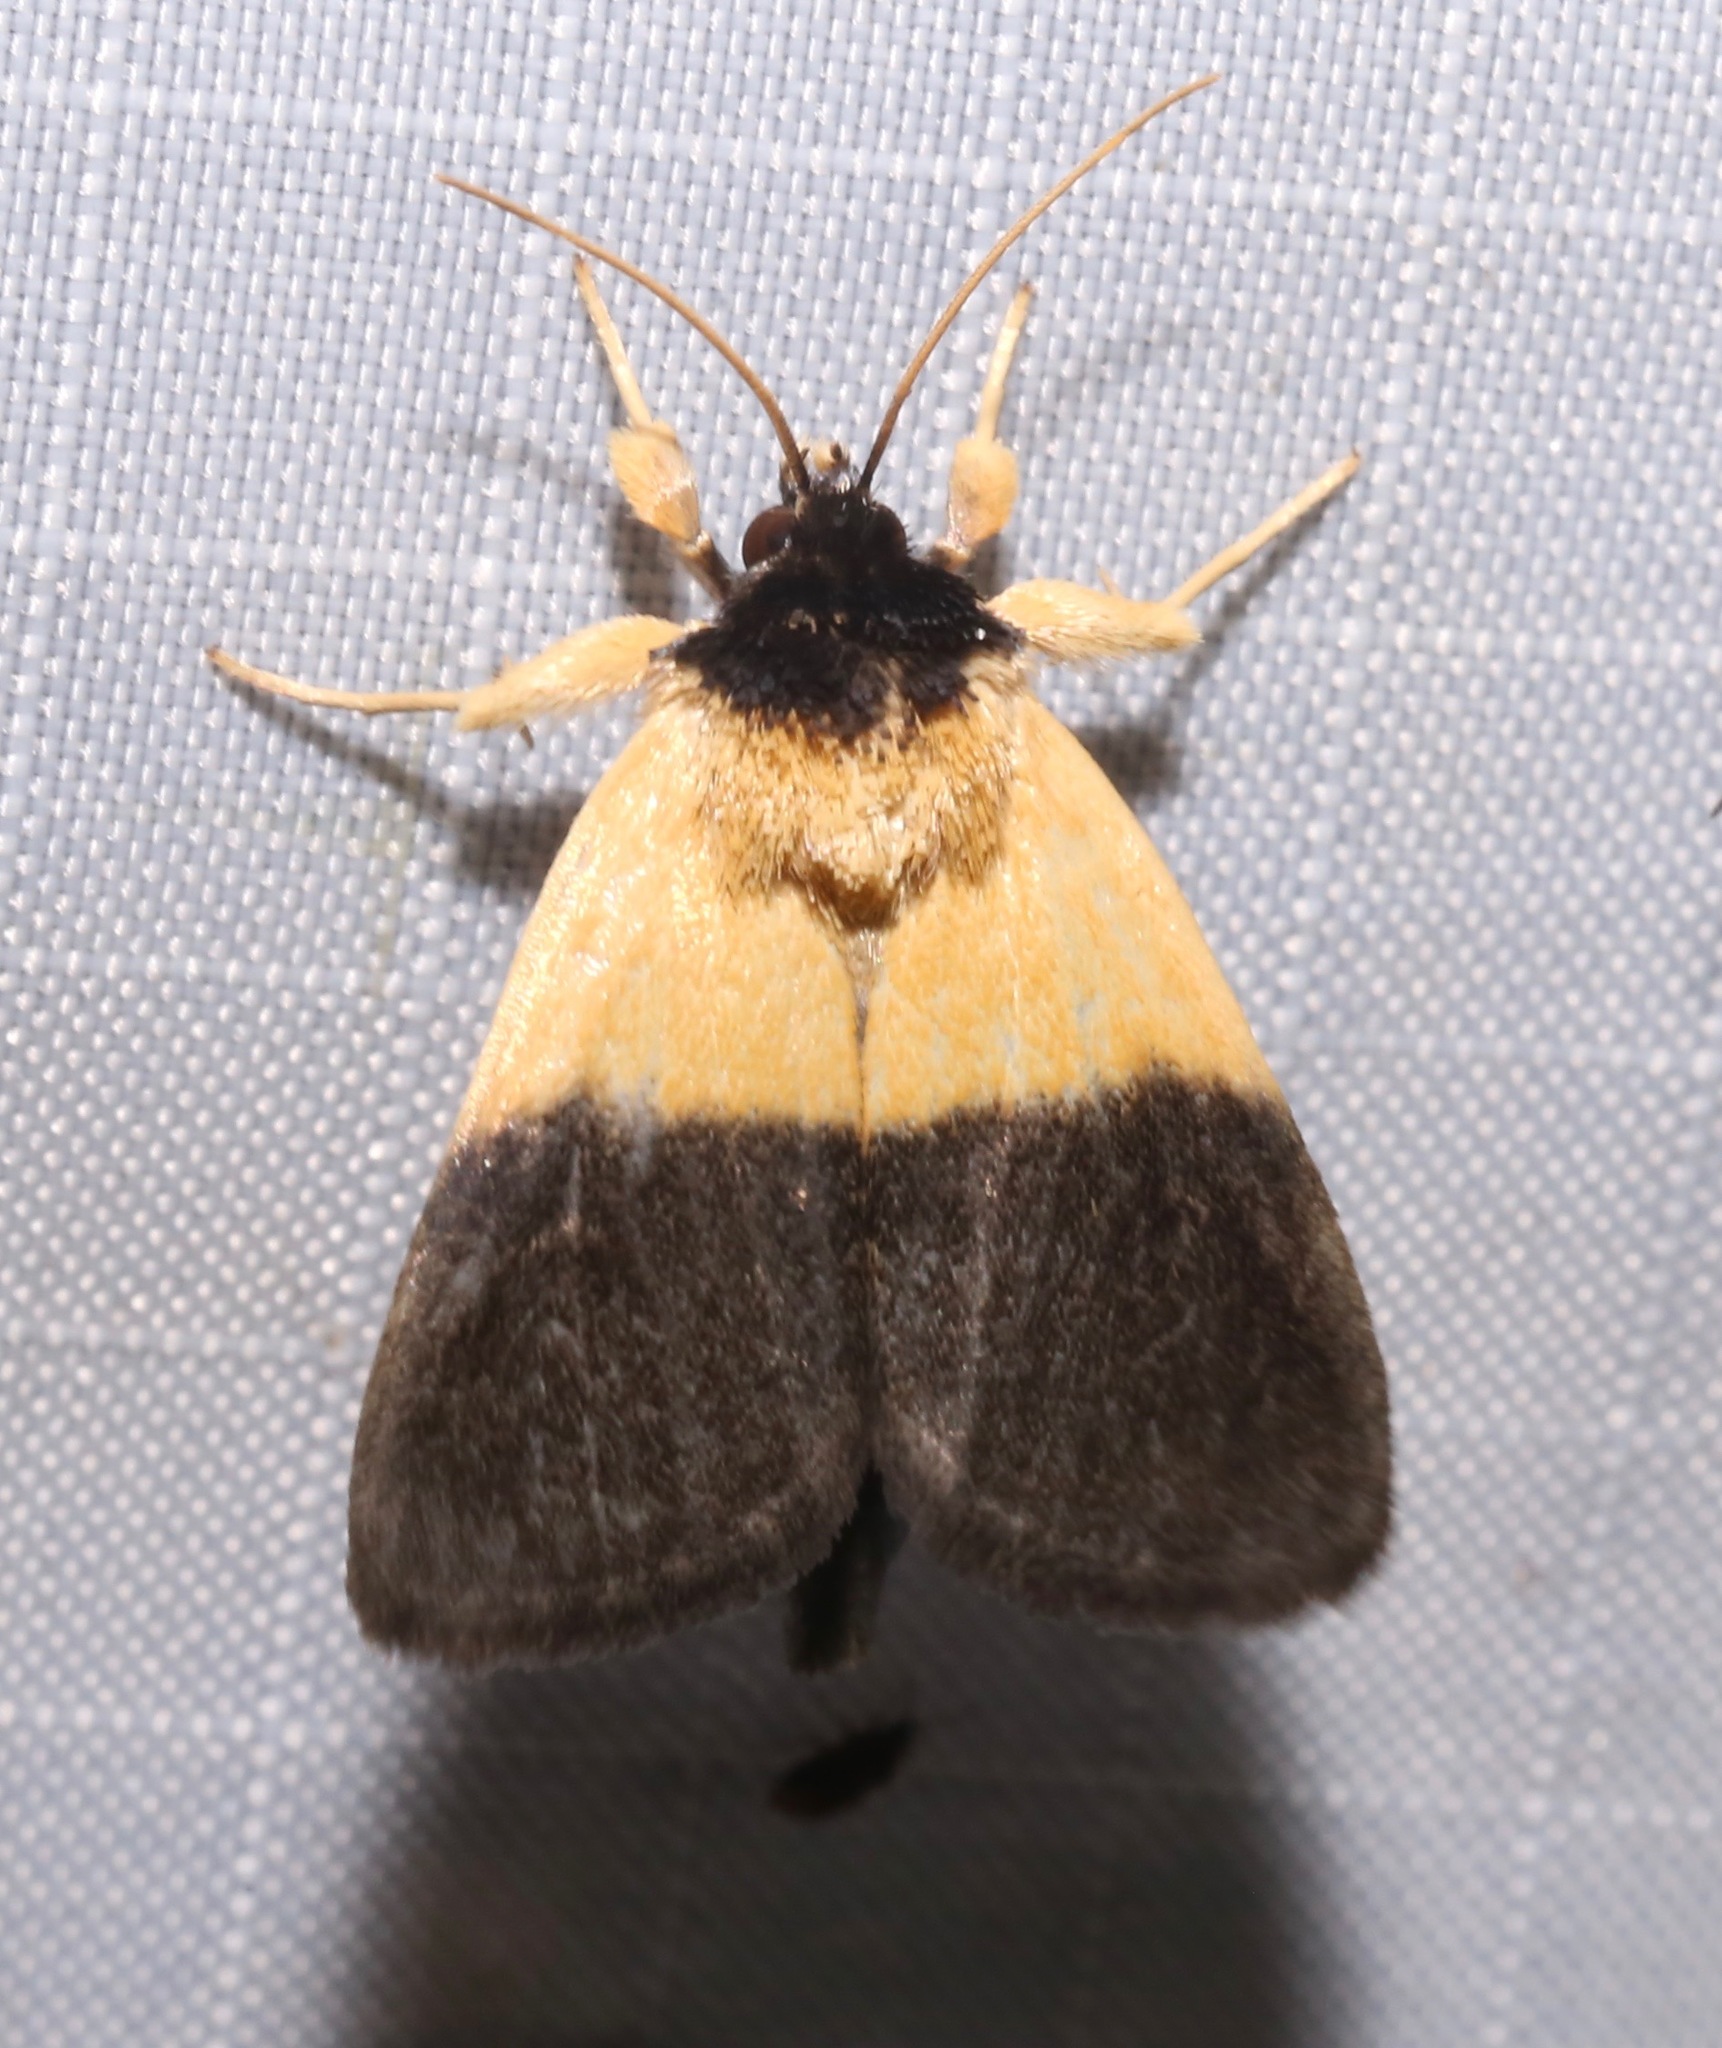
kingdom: Animalia
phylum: Arthropoda
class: Insecta
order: Lepidoptera
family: Noctuidae
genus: Exyra
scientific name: Exyra semicrocea
